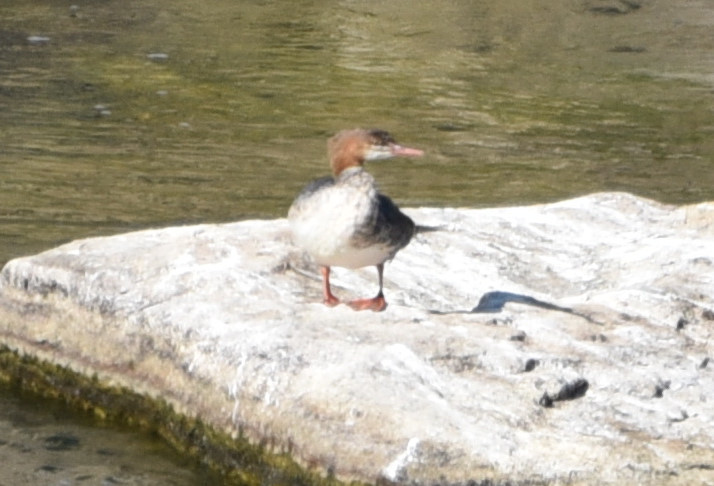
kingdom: Animalia
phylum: Chordata
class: Aves
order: Anseriformes
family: Anatidae
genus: Mergus
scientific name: Mergus merganser
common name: Common merganser
